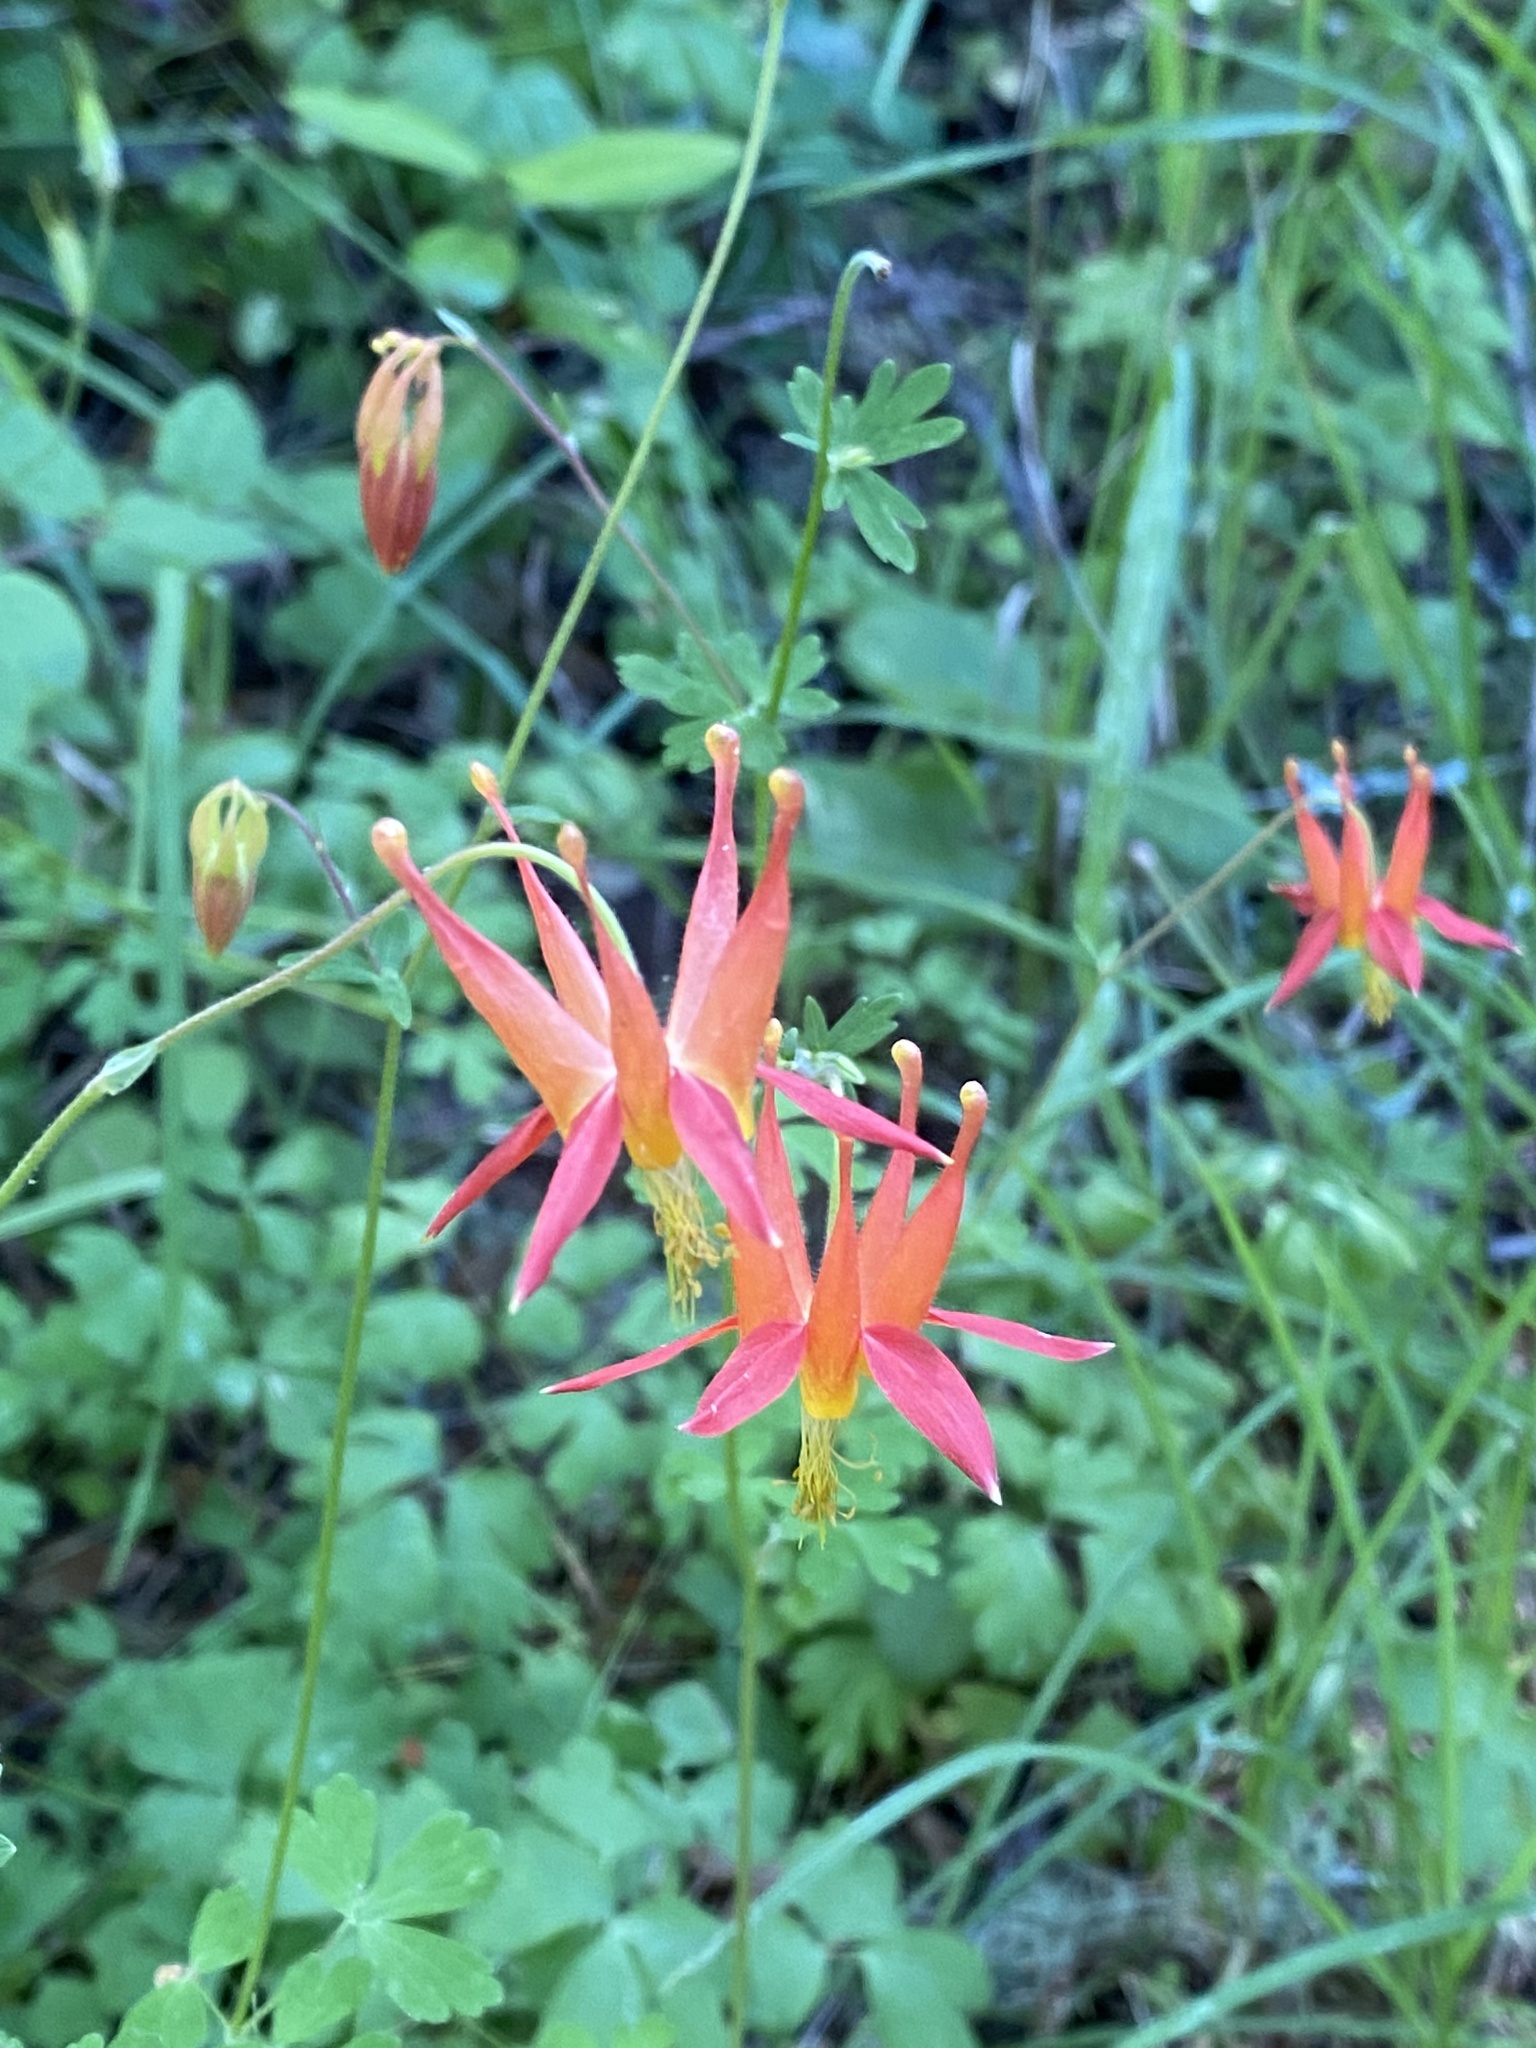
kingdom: Plantae
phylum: Tracheophyta
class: Magnoliopsida
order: Ranunculales
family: Ranunculaceae
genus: Aquilegia
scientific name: Aquilegia formosa
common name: Sitka columbine
